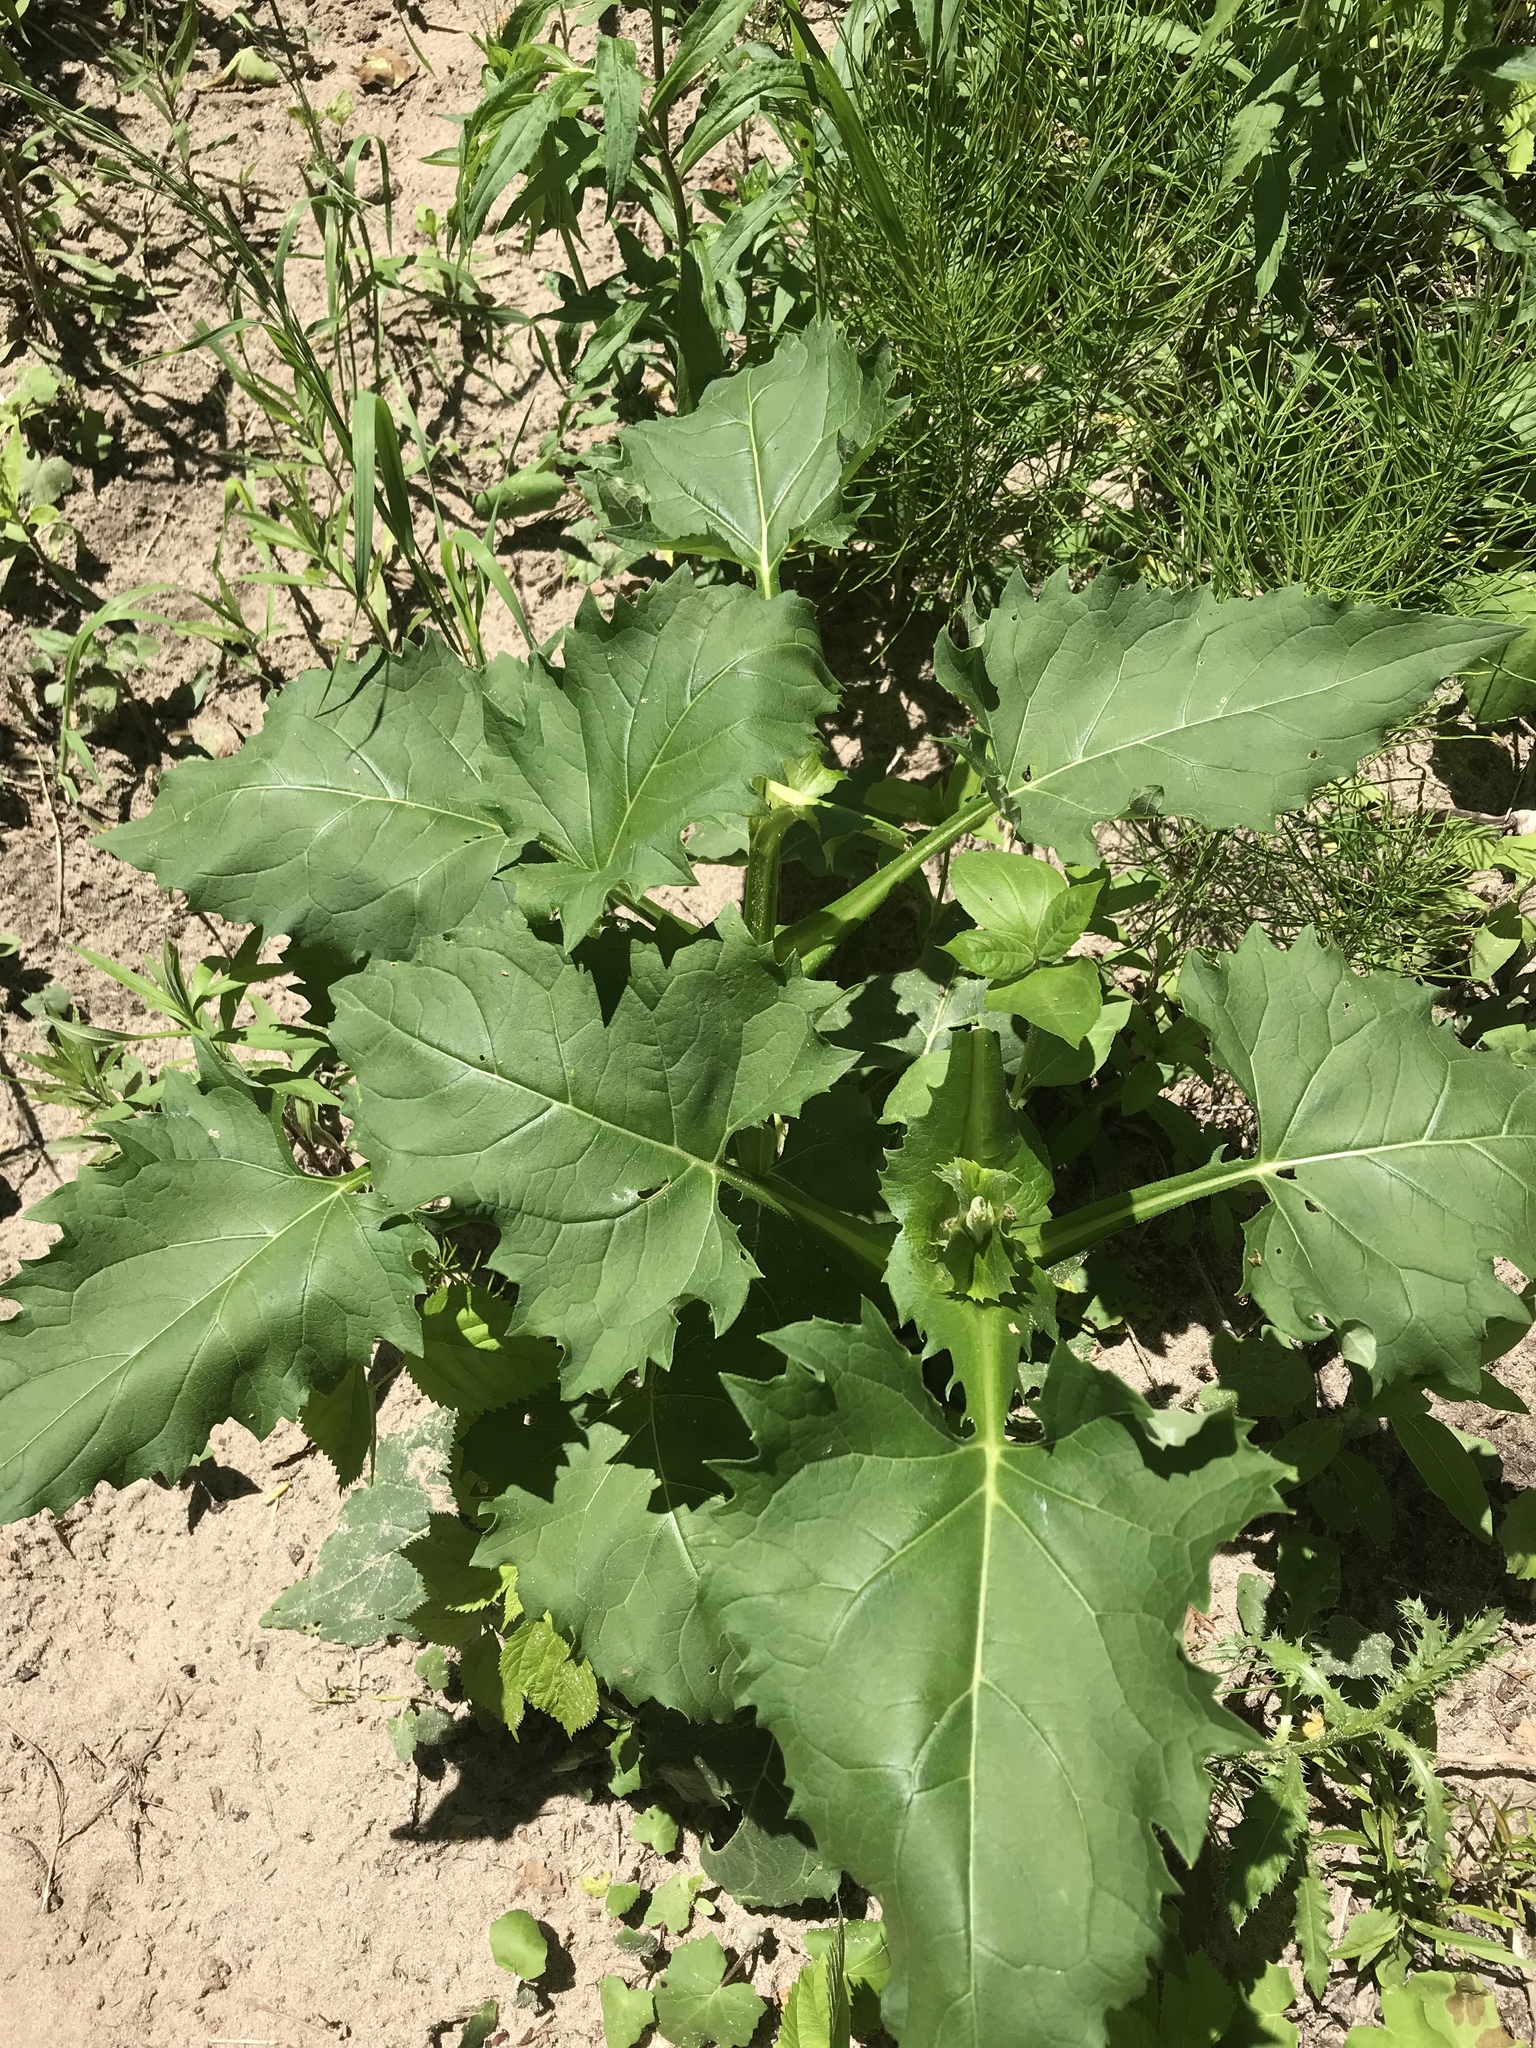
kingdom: Plantae
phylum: Tracheophyta
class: Magnoliopsida
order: Asterales
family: Asteraceae
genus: Silphium
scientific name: Silphium perfoliatum
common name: Cup-plant
